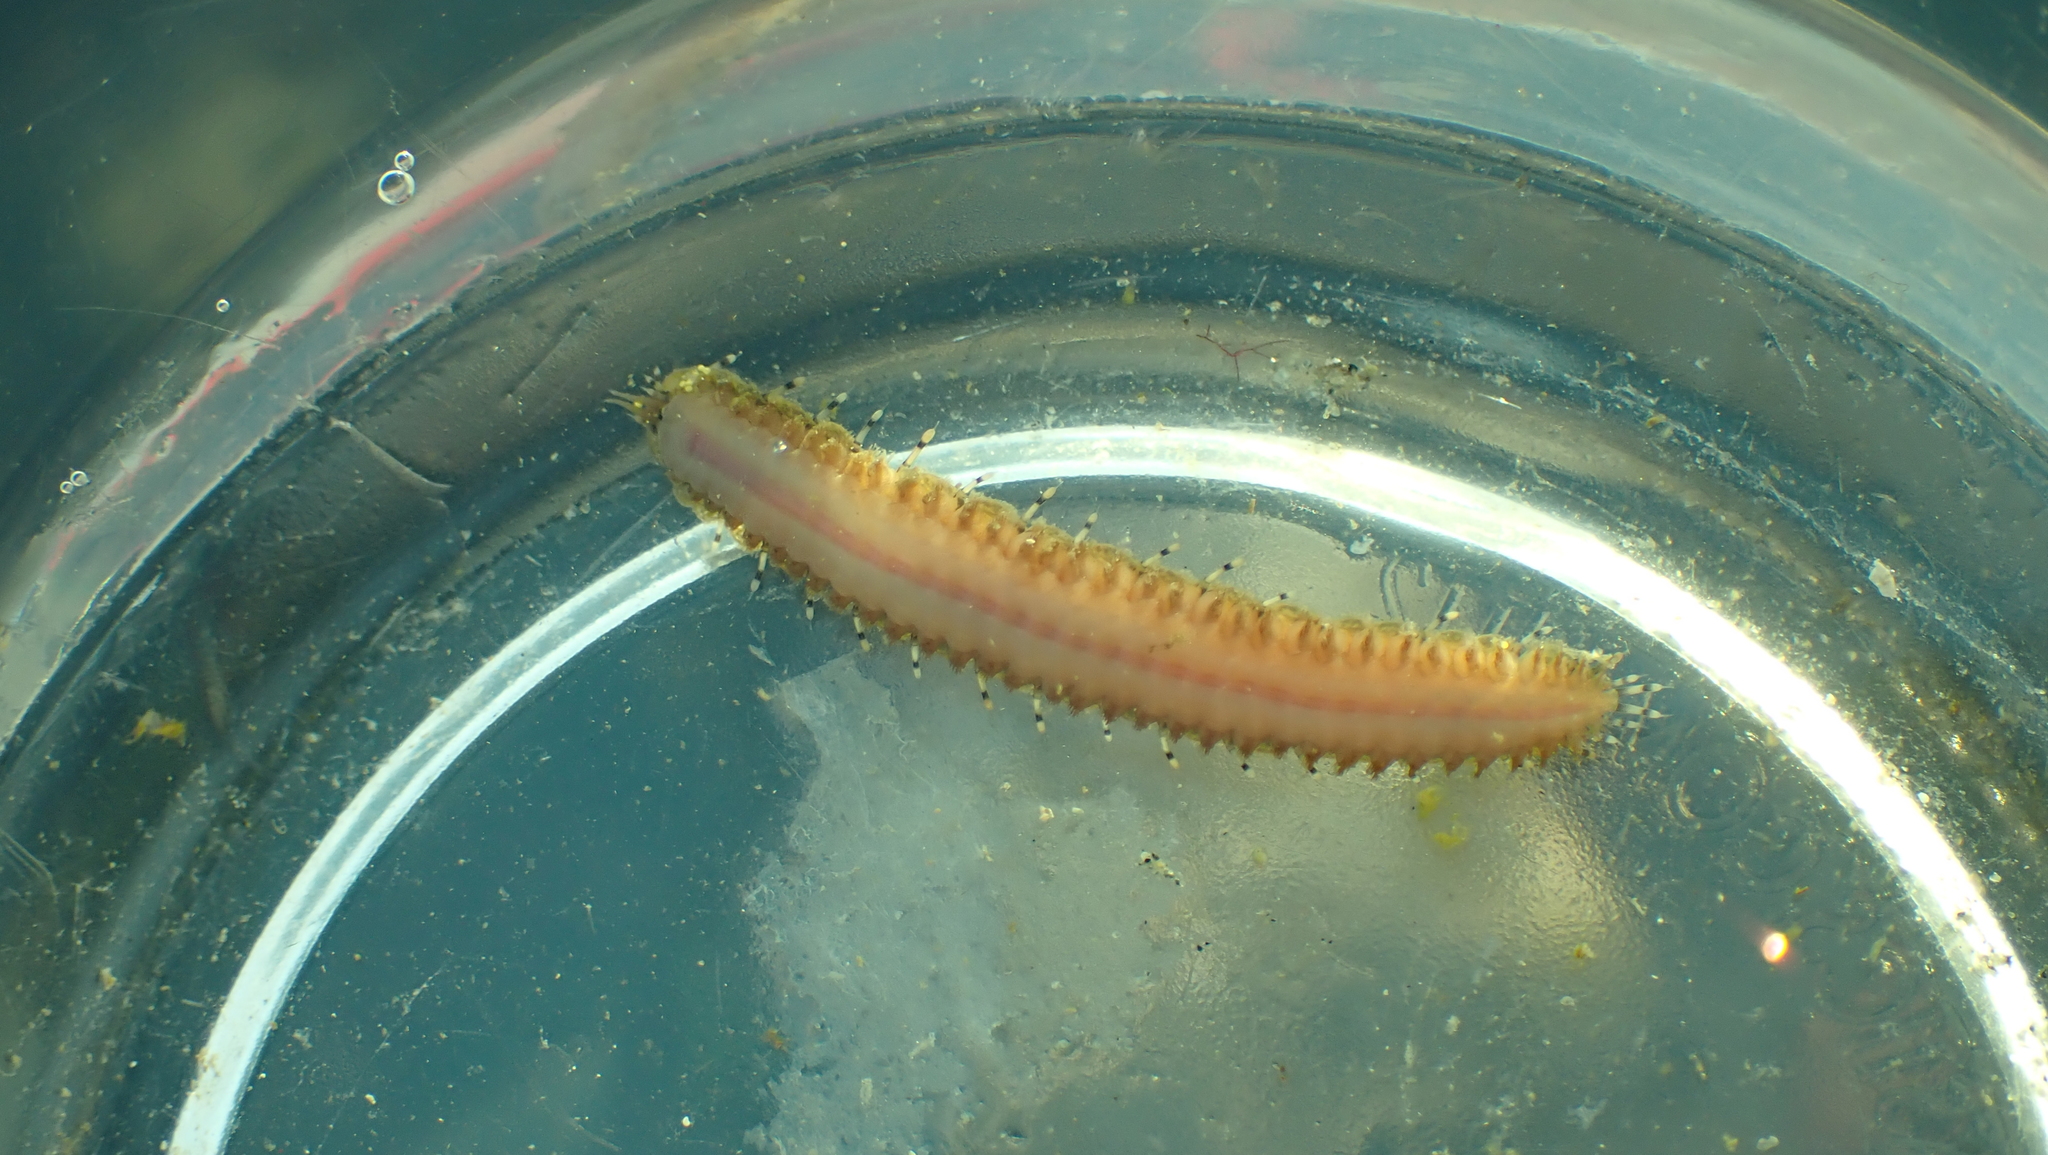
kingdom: Animalia
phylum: Annelida
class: Polychaeta
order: Phyllodocida
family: Polynoidae
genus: Halosydna
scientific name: Halosydna brevisetosa
